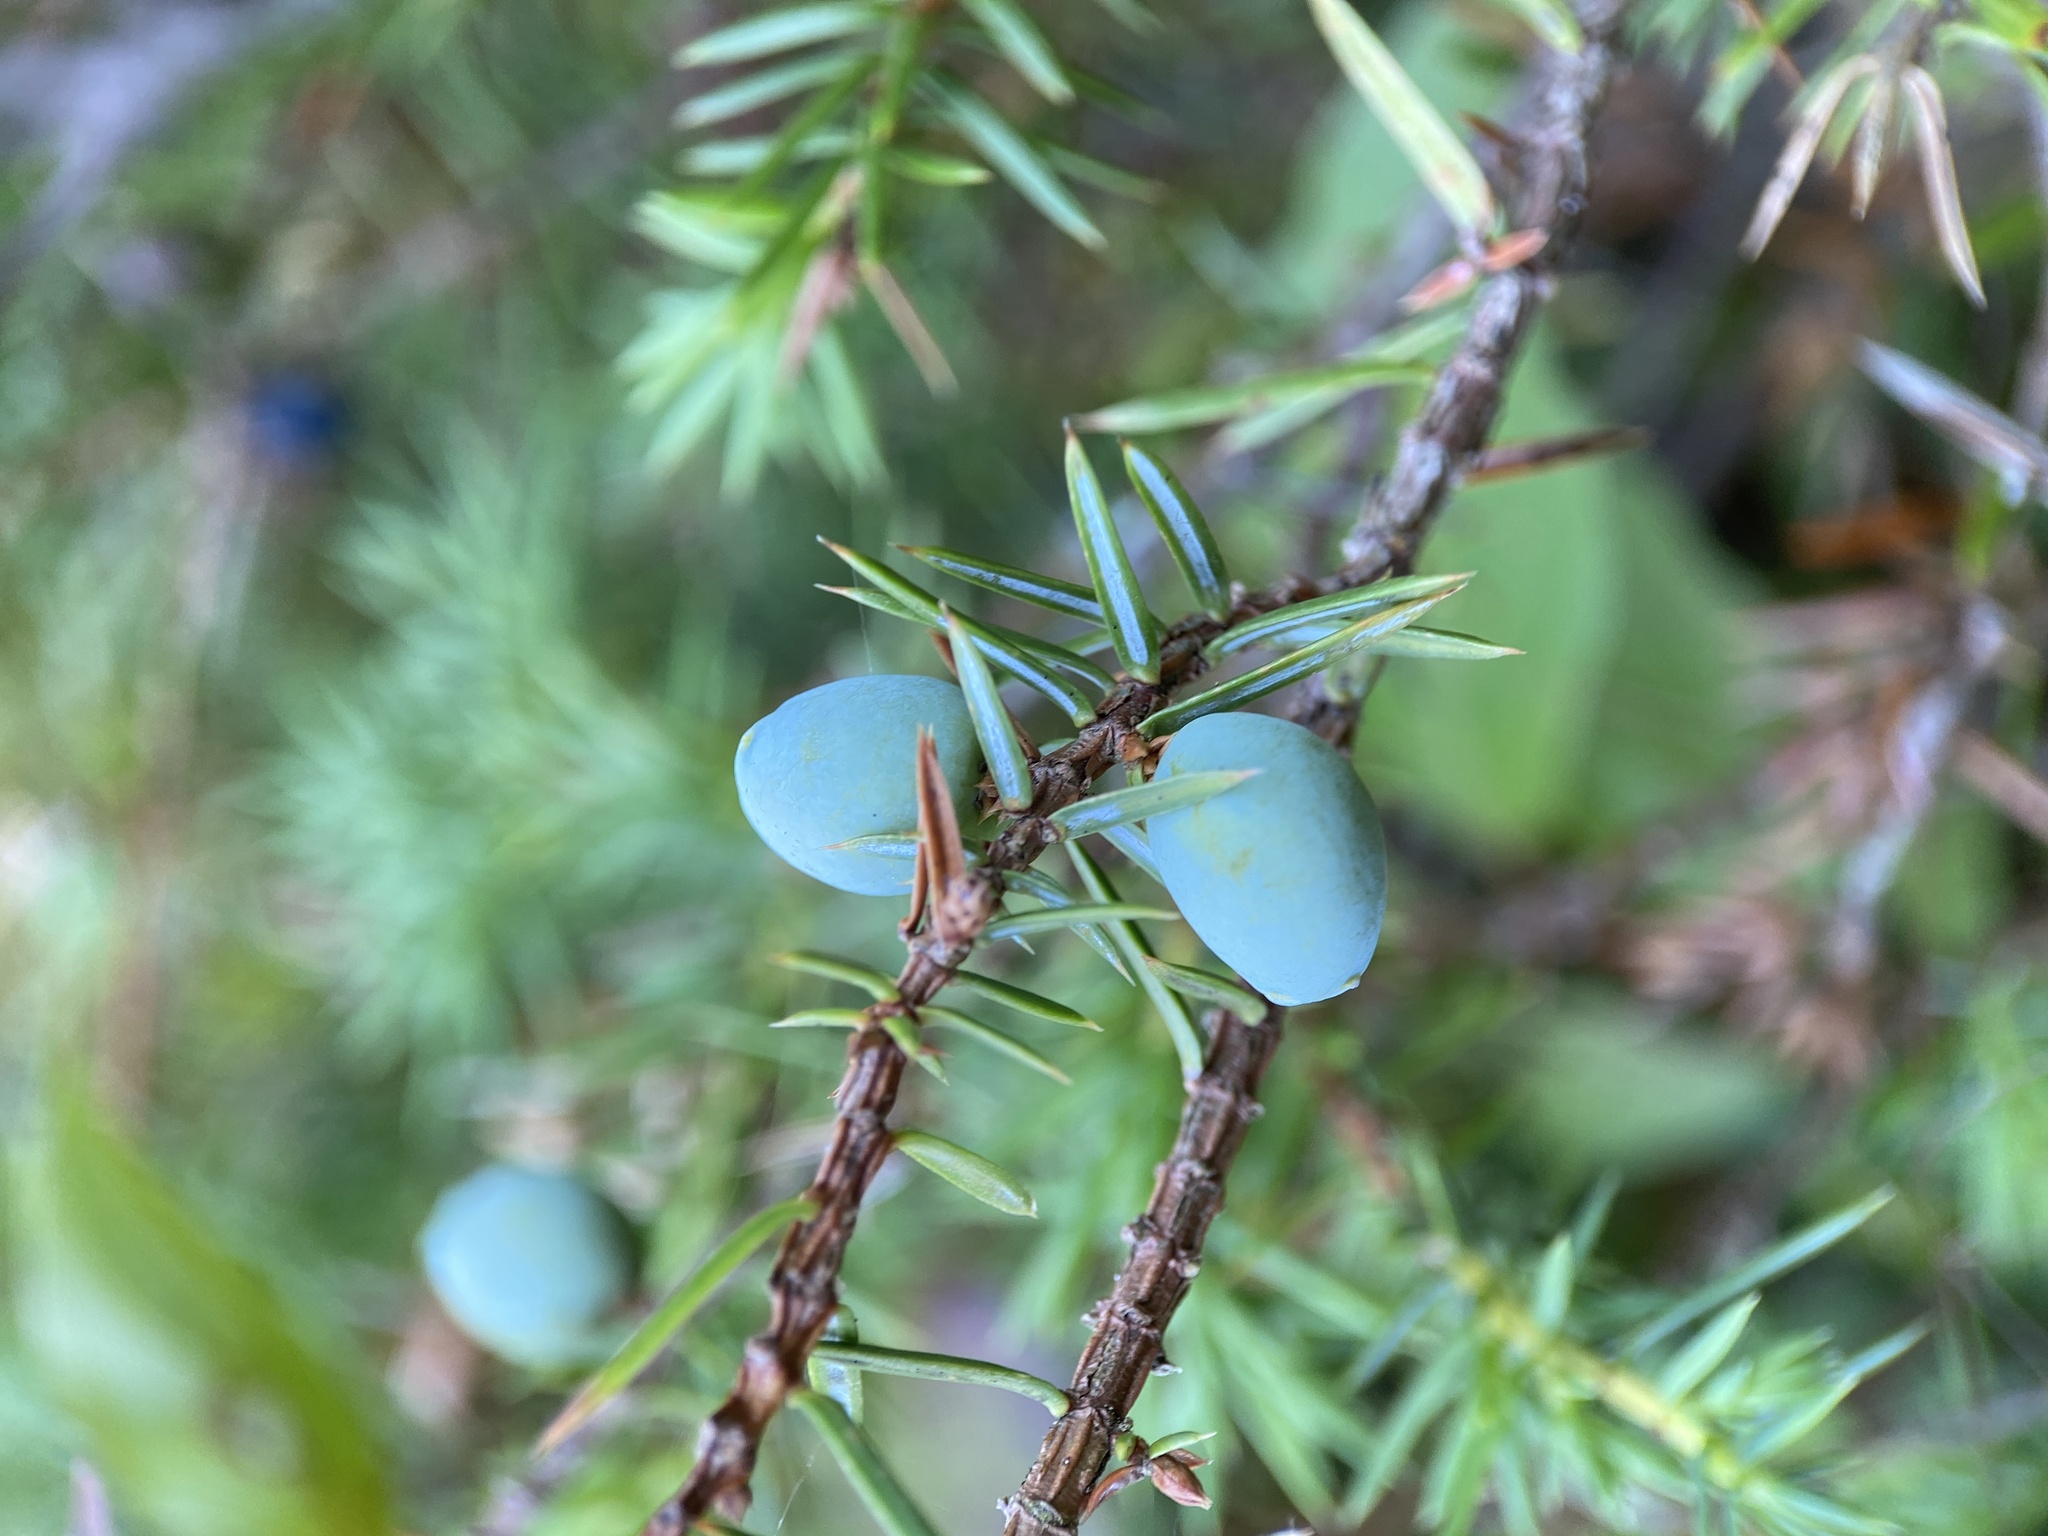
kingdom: Plantae
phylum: Tracheophyta
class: Pinopsida
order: Pinales
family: Cupressaceae
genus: Juniperus
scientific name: Juniperus communis
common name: Common juniper
